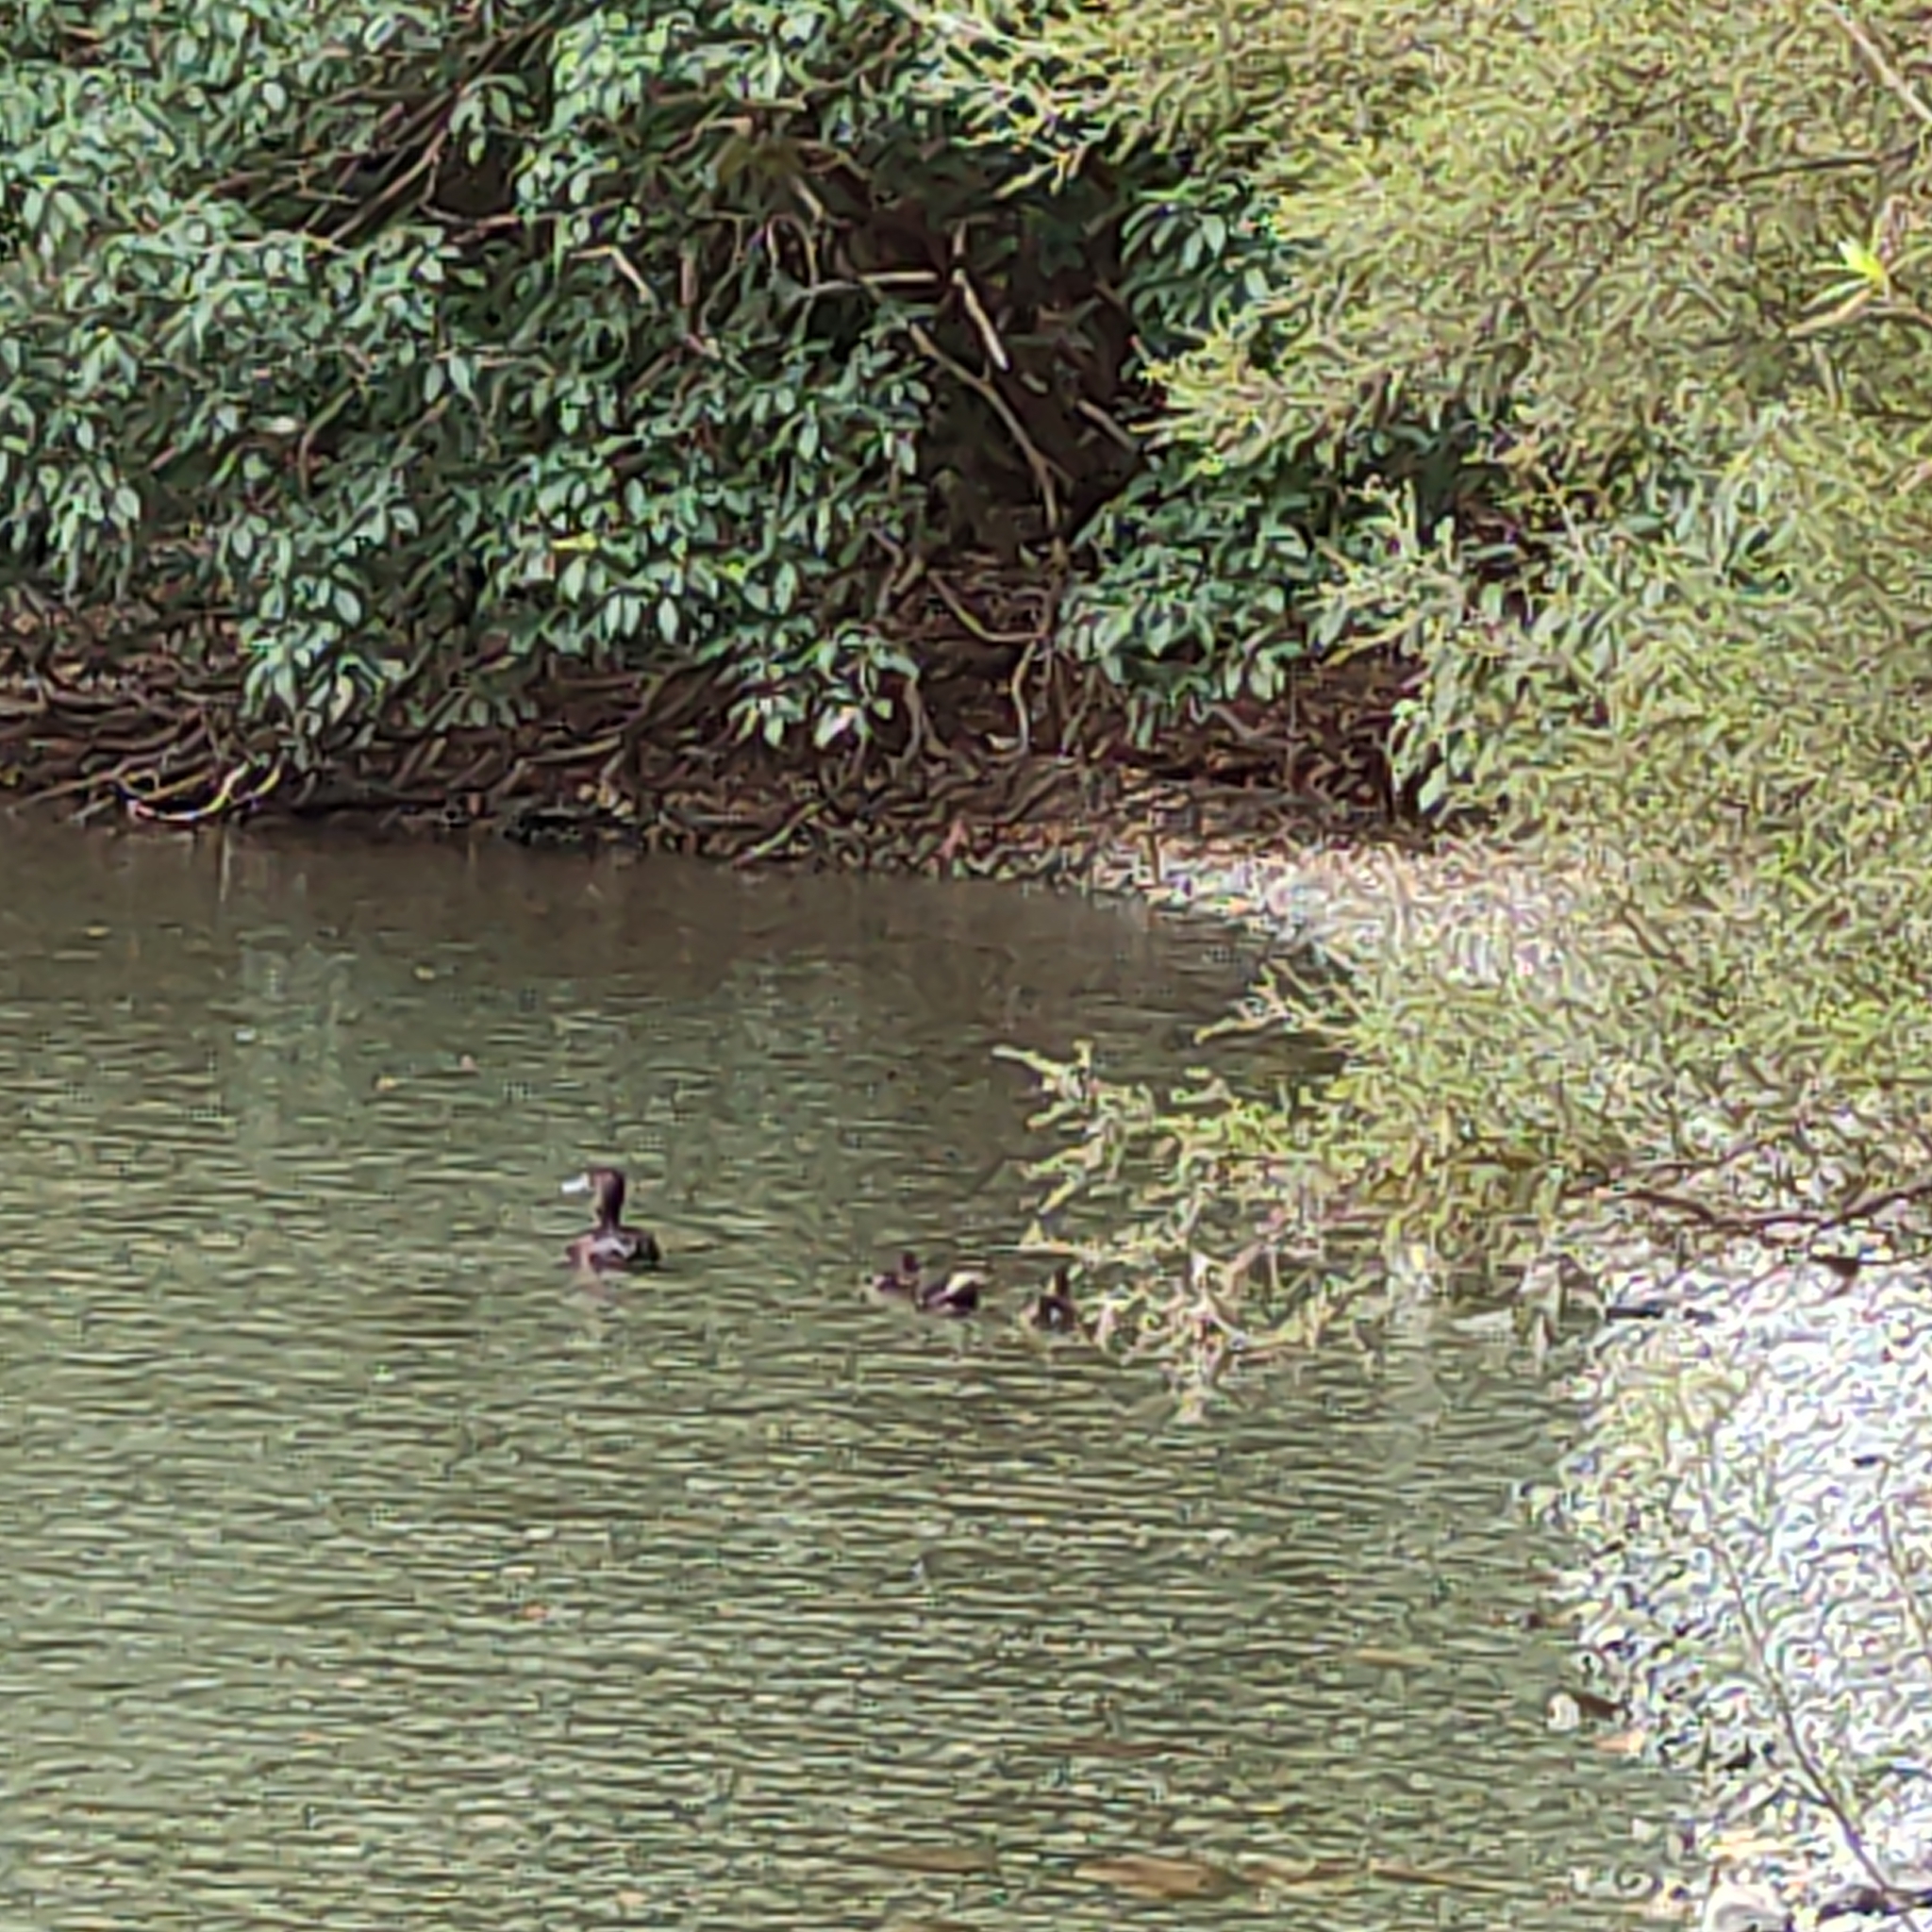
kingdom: Animalia
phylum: Chordata
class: Aves
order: Anseriformes
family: Anatidae
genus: Aythya
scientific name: Aythya novaeseelandiae
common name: New zealand scaup
